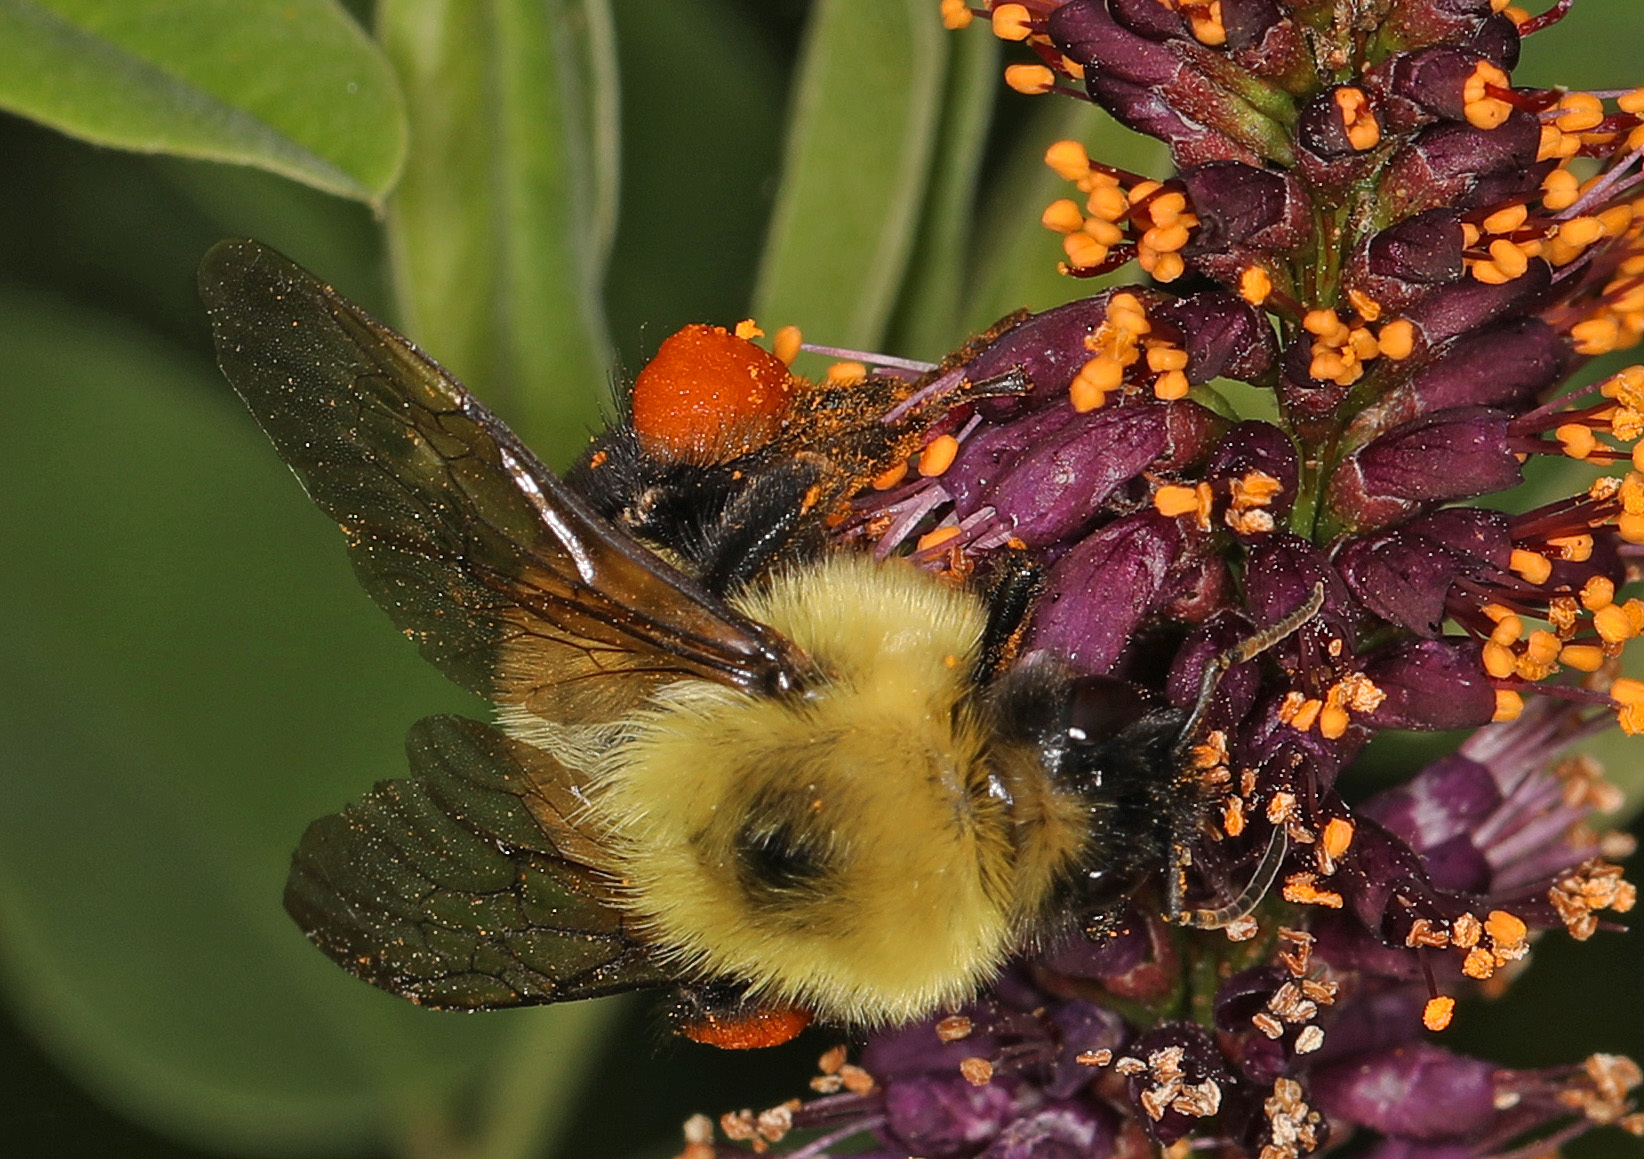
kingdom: Animalia
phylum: Arthropoda
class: Insecta
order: Hymenoptera
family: Apidae
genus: Bombus
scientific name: Bombus bimaculatus
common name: Two-spotted bumble bee
